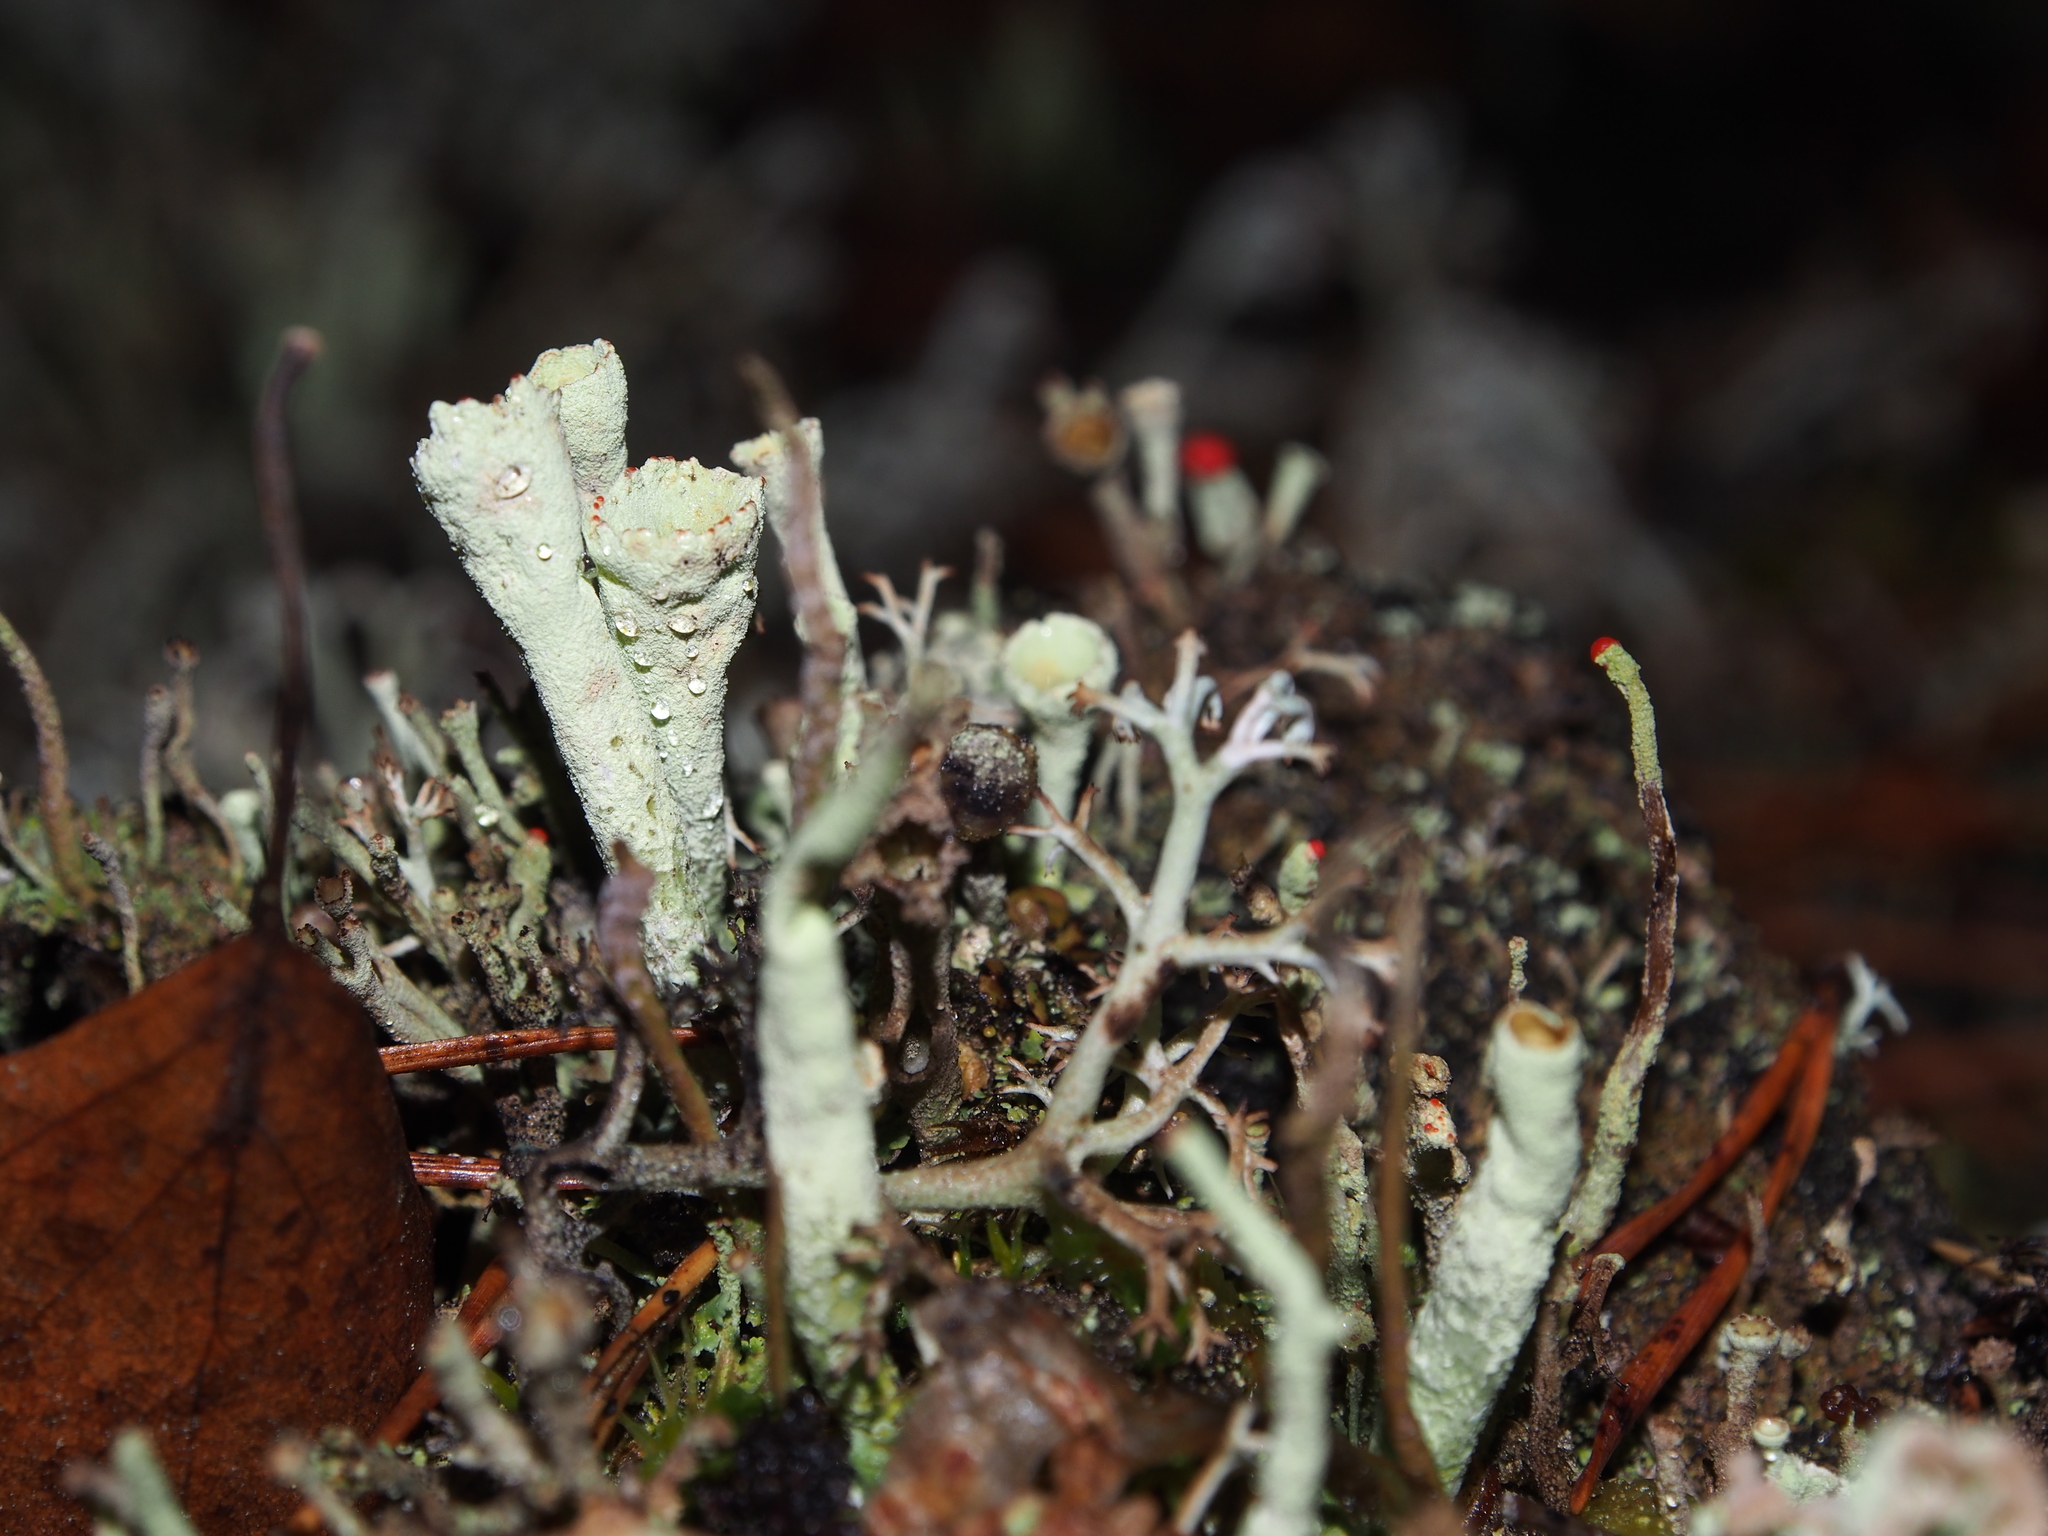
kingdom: Fungi
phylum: Ascomycota
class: Lecanoromycetes
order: Lecanorales
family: Cladoniaceae
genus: Cladonia
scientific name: Cladonia macilenta
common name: Lipstick powderhorn
